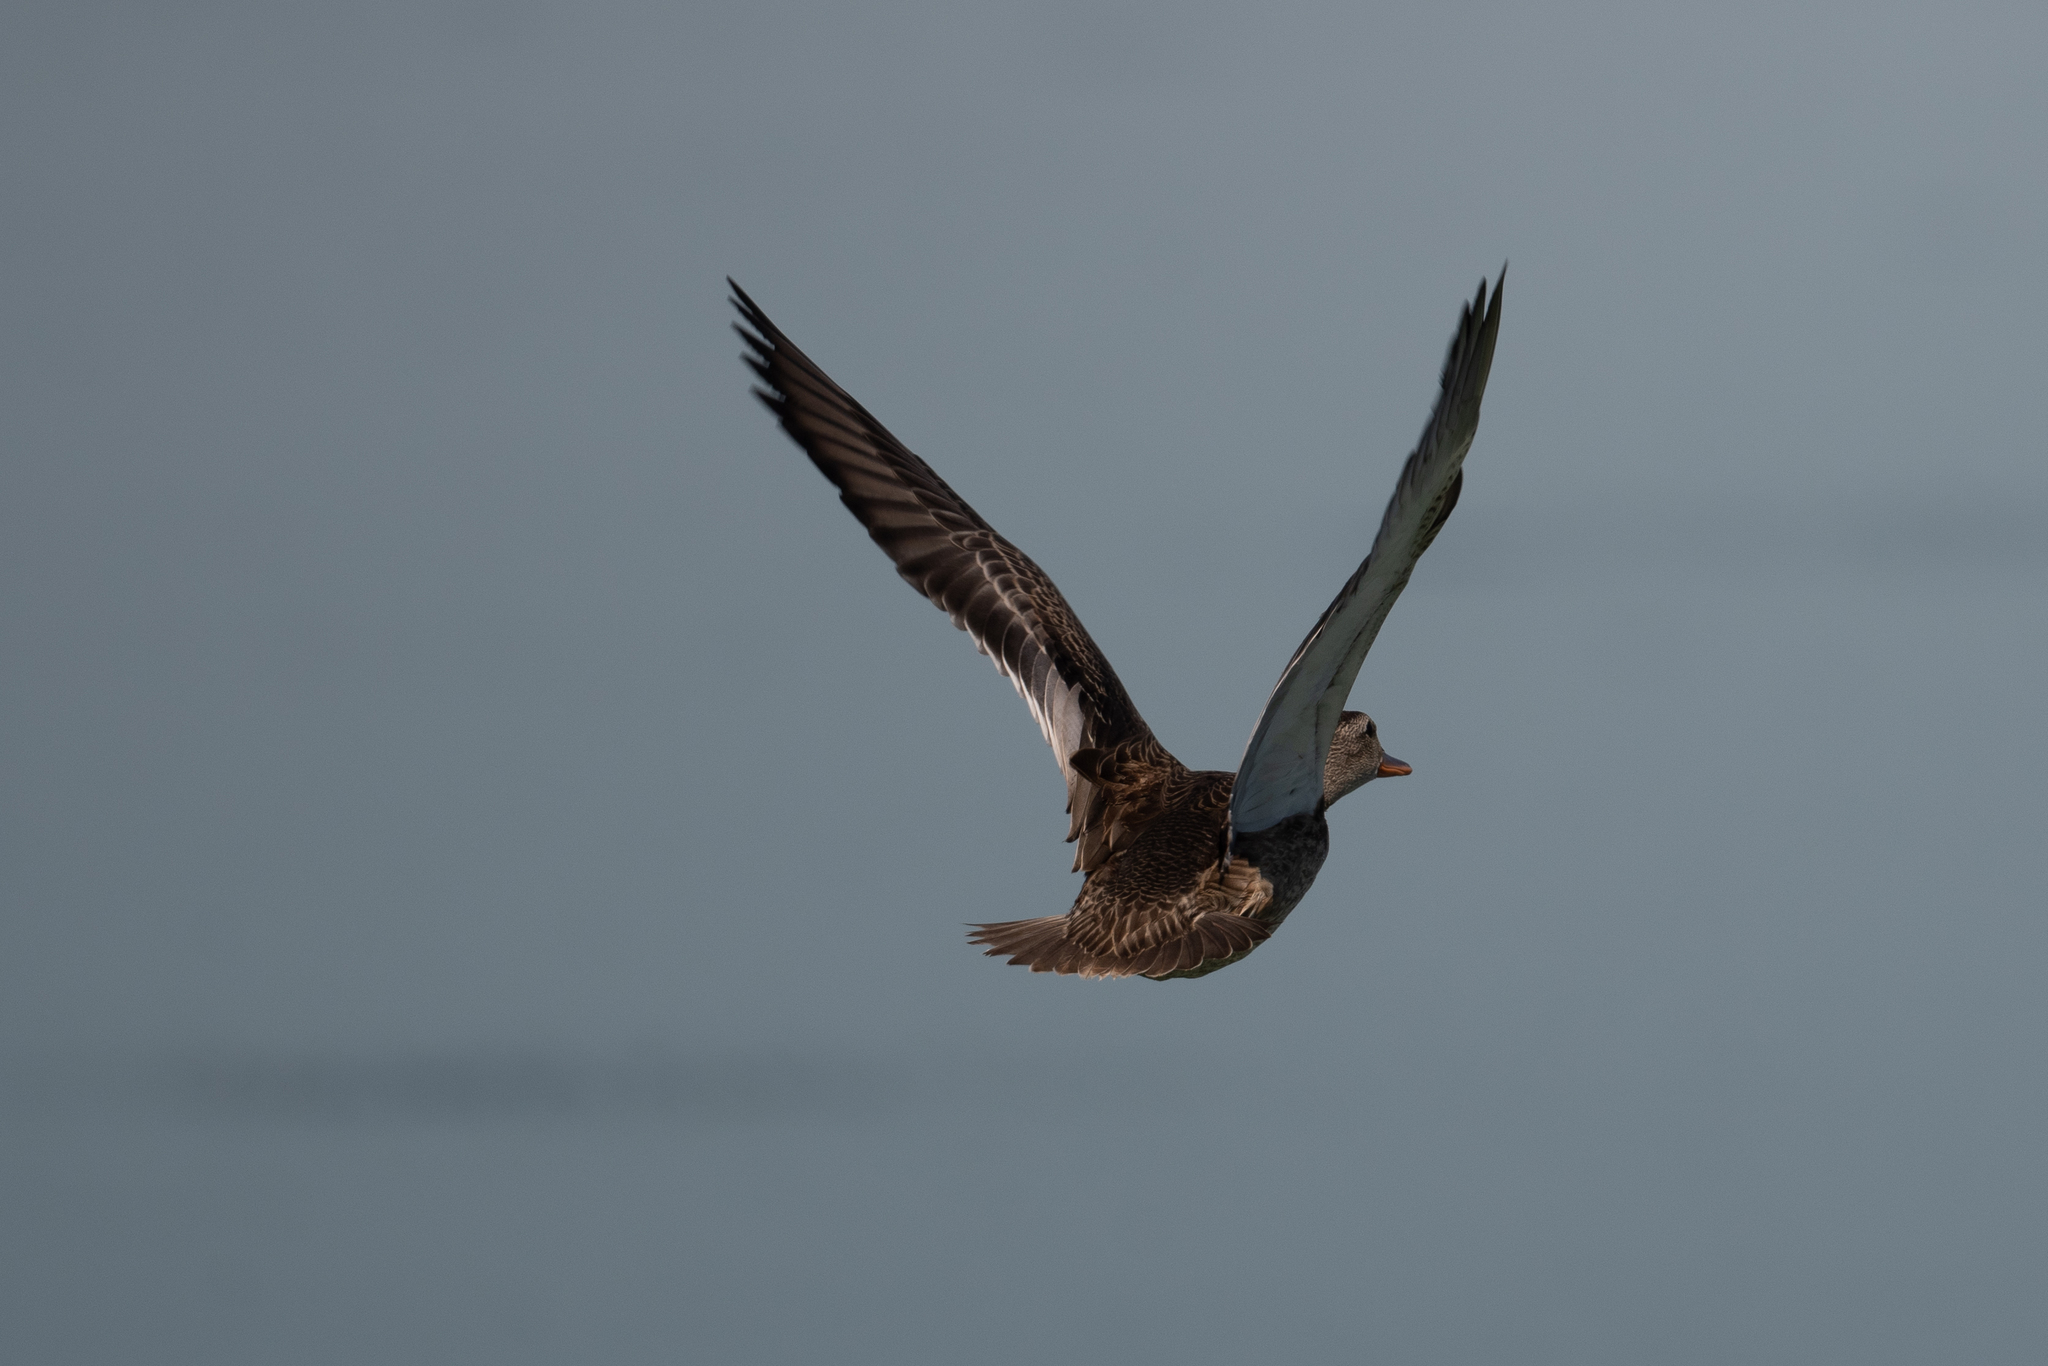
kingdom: Animalia
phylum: Chordata
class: Aves
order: Anseriformes
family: Anatidae
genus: Mareca
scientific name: Mareca strepera
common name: Gadwall
